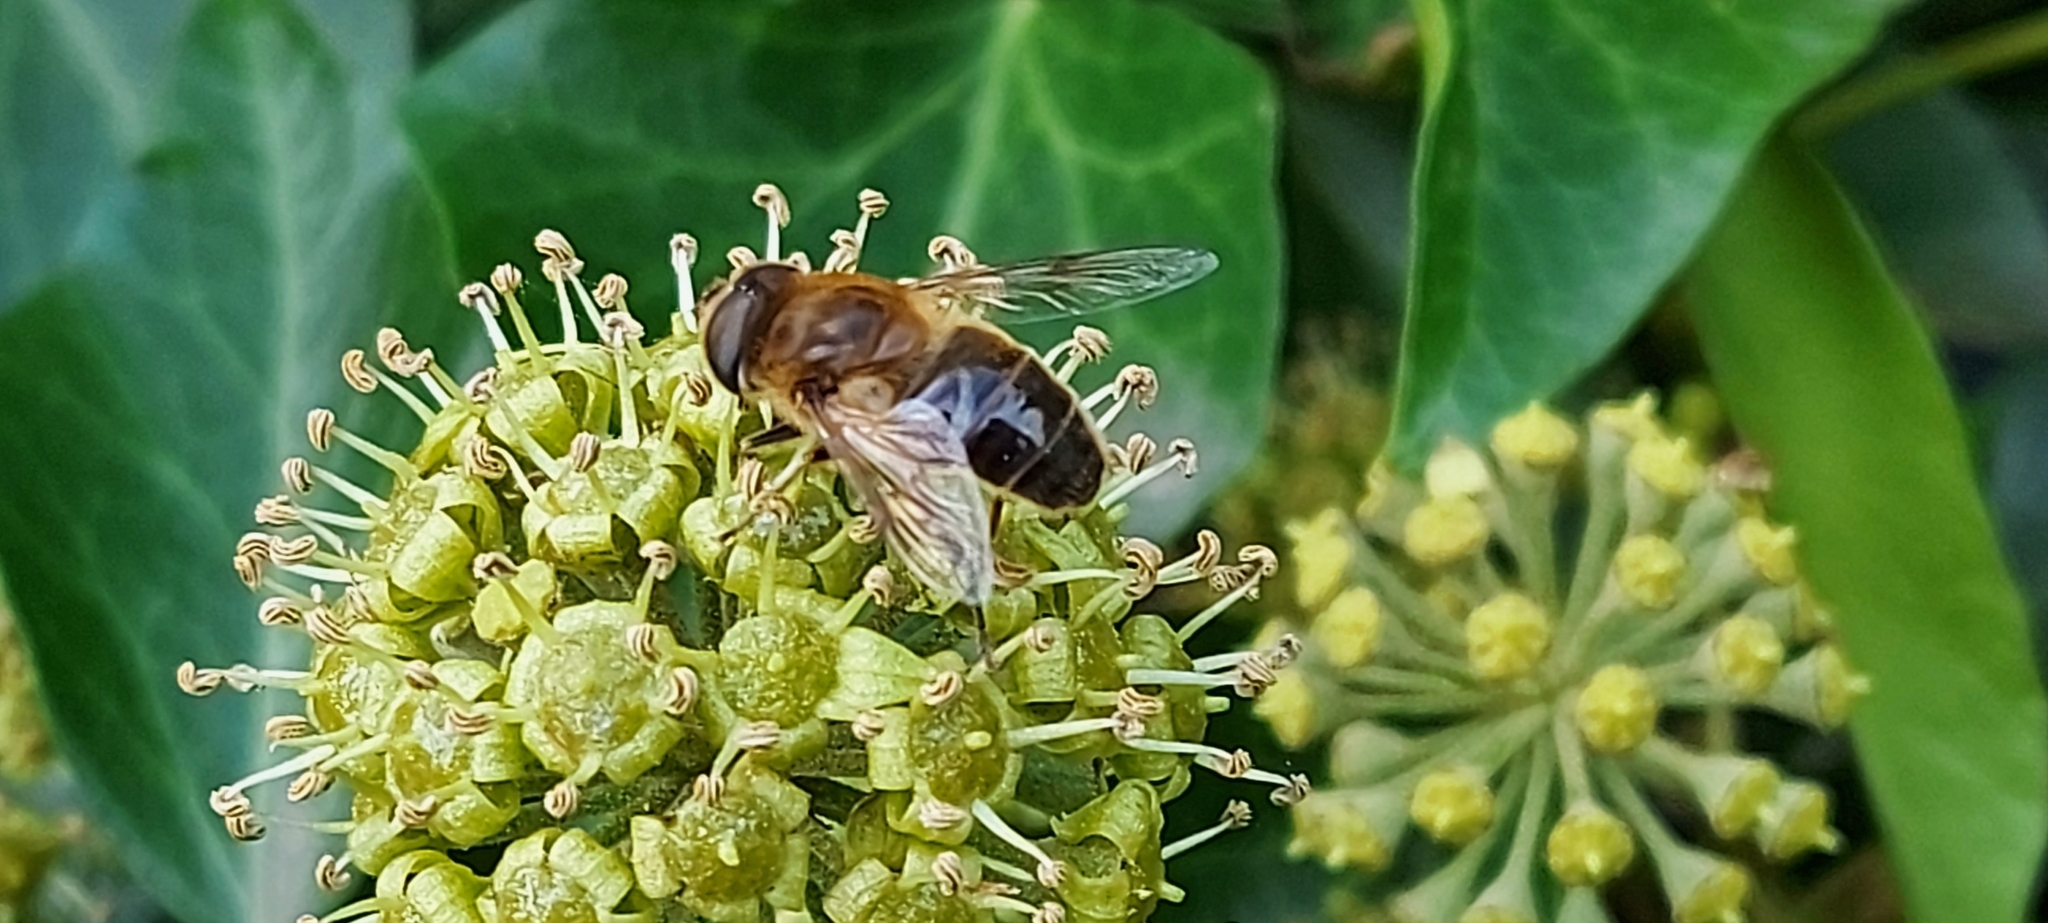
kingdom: Animalia
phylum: Arthropoda
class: Insecta
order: Diptera
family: Syrphidae
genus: Eristalis
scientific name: Eristalis tenax
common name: Drone fly
